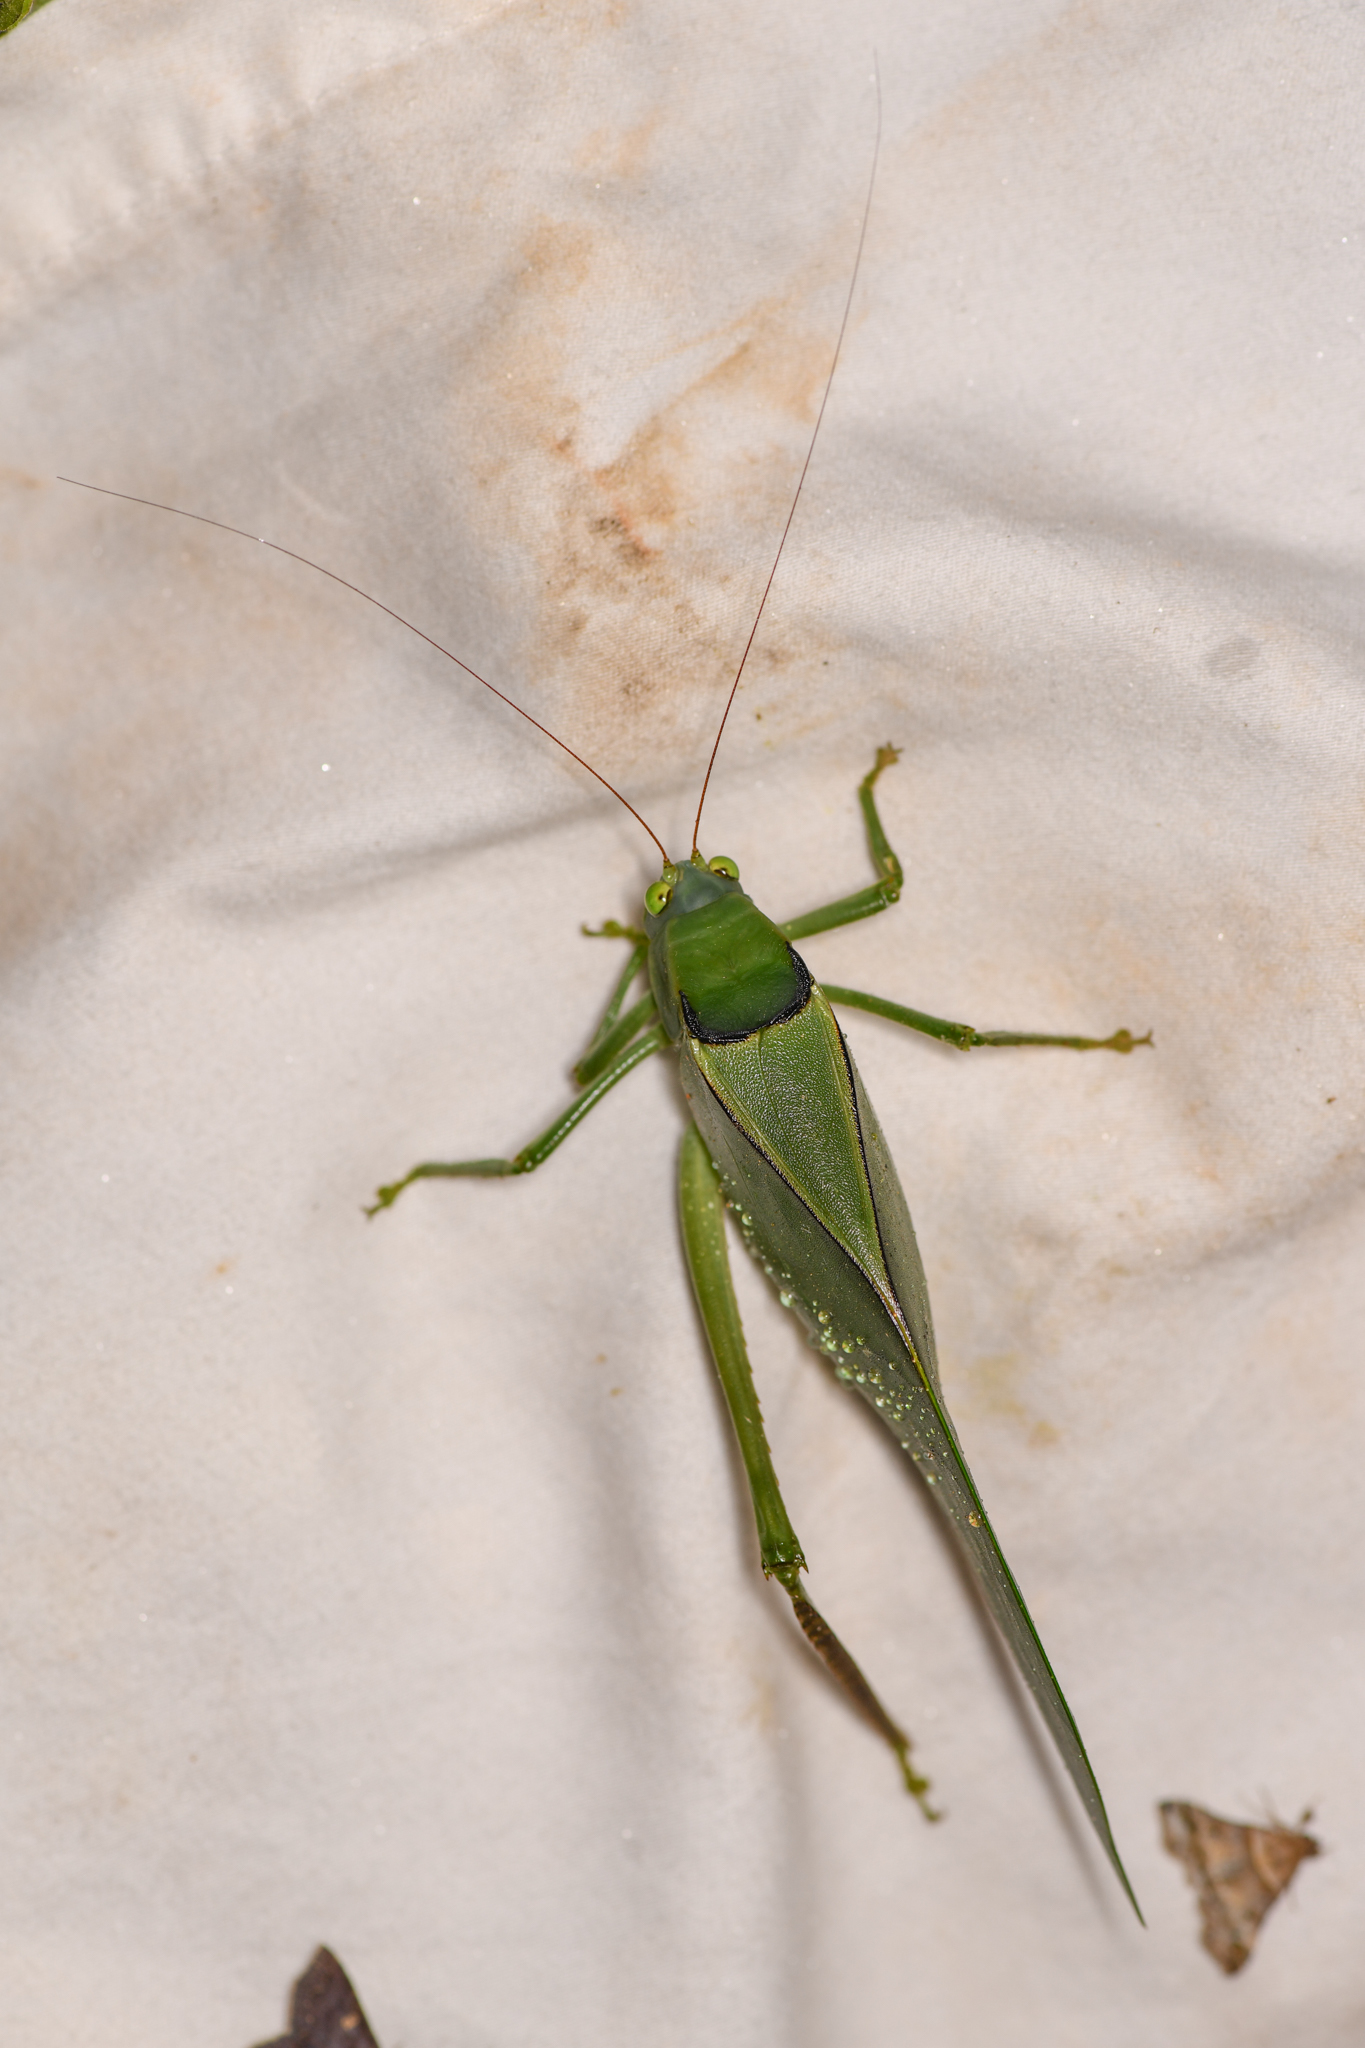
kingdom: Animalia
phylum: Arthropoda
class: Insecta
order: Orthoptera
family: Tettigoniidae
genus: Stilpnochlora
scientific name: Stilpnochlora azteca
